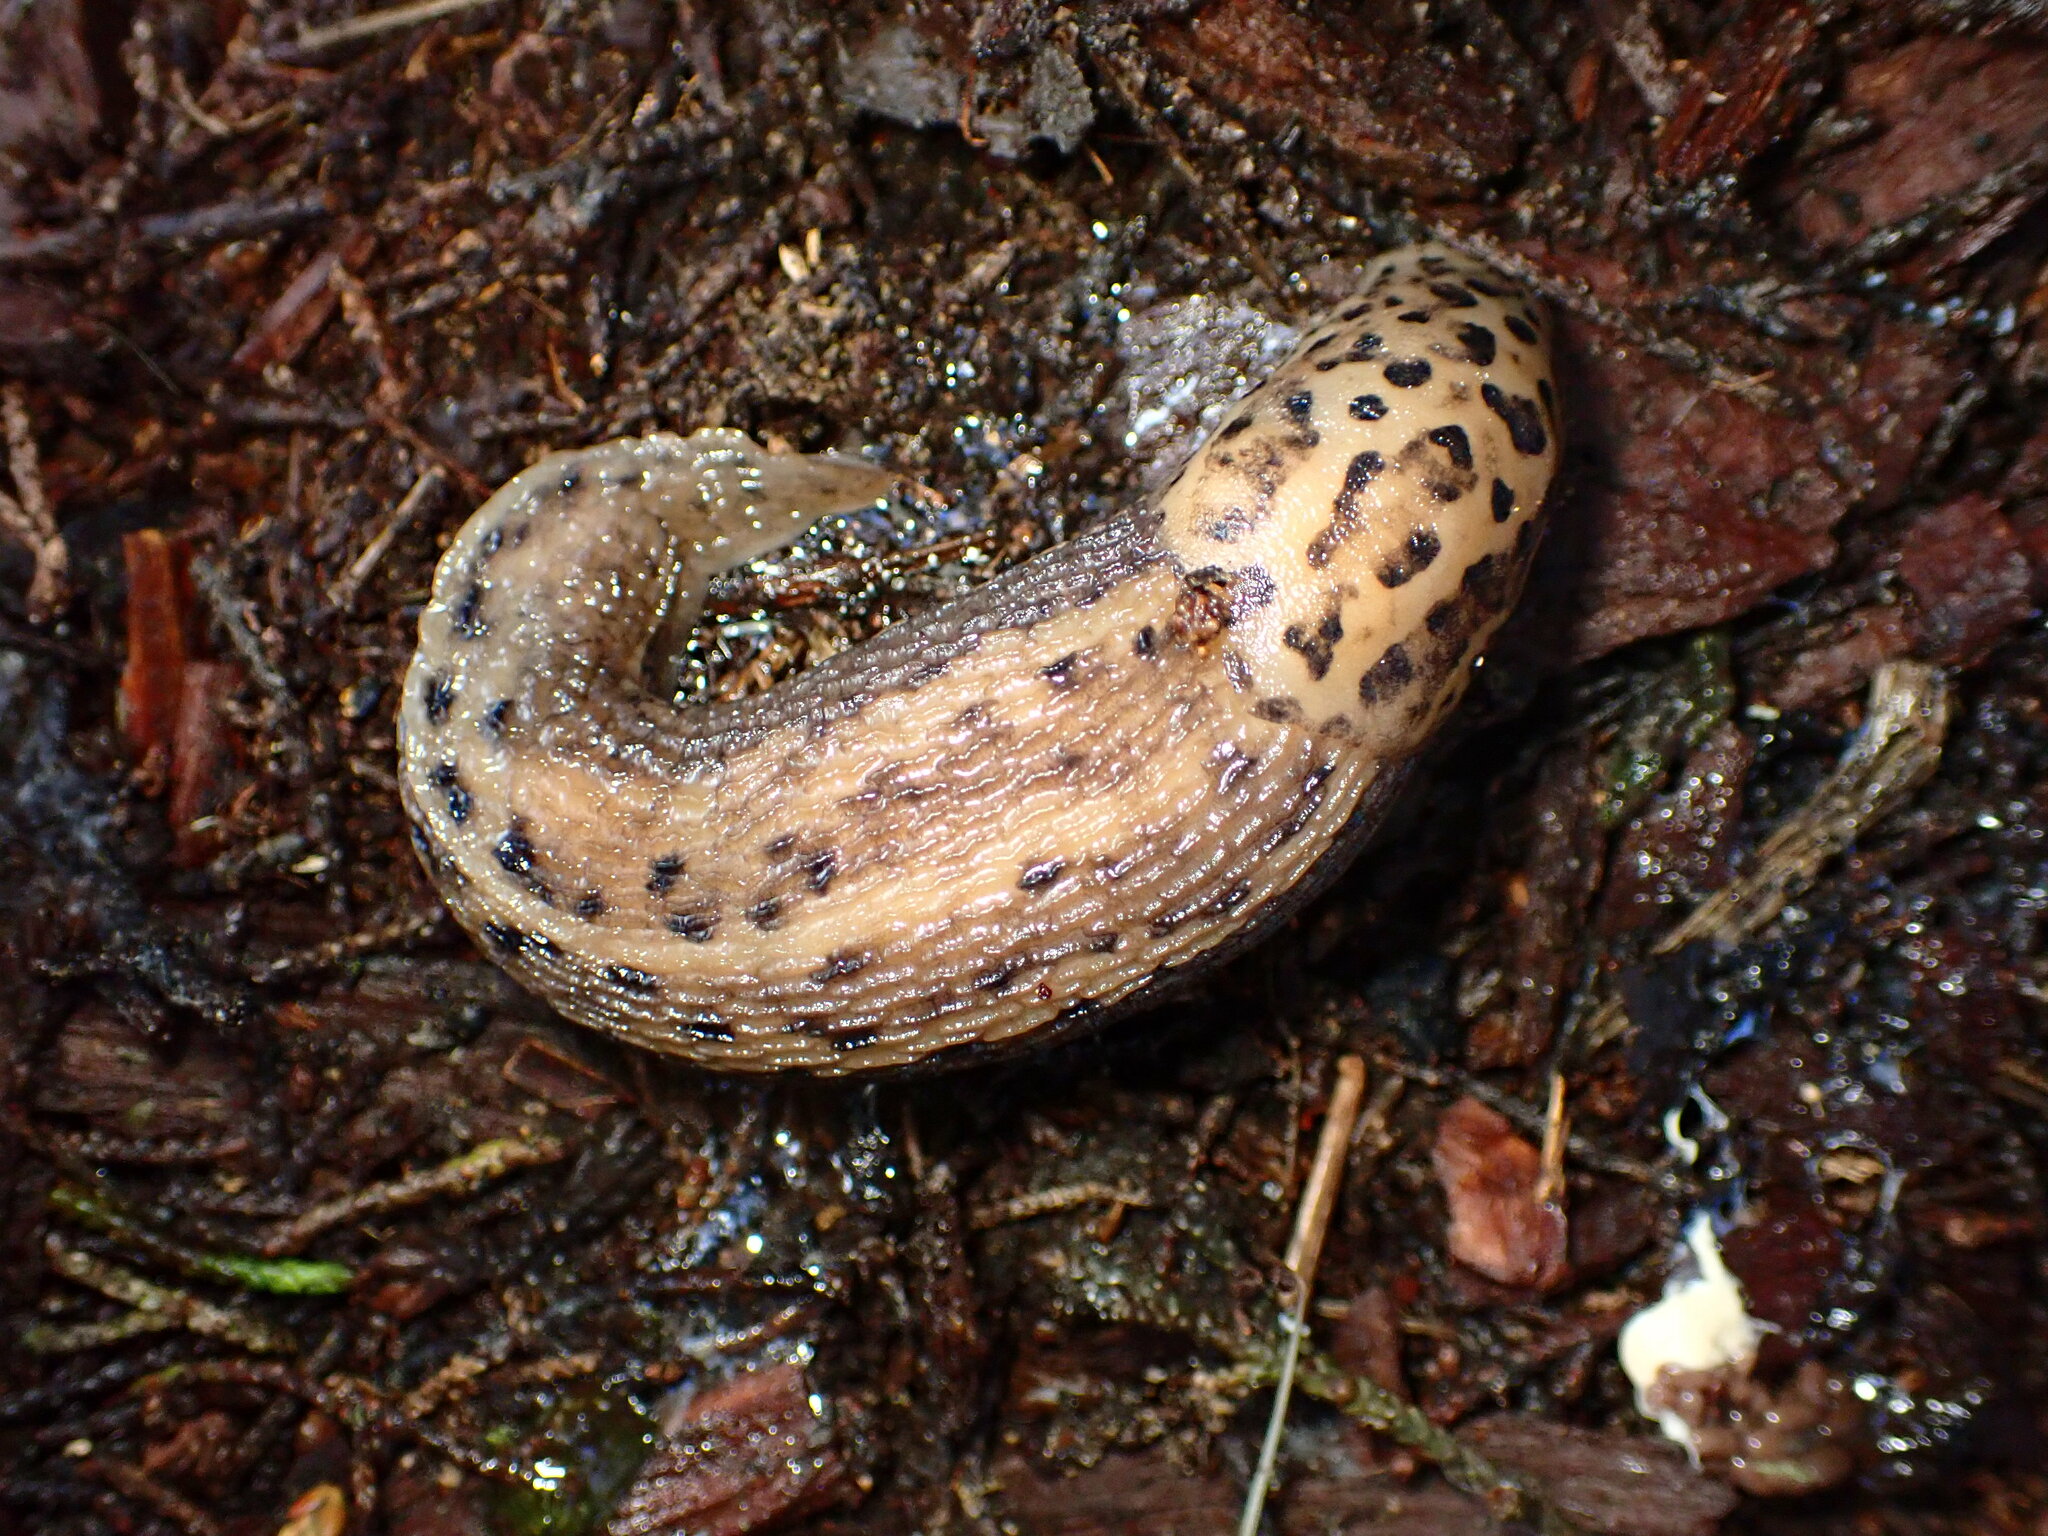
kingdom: Animalia
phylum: Mollusca
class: Gastropoda
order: Stylommatophora
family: Limacidae
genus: Limax
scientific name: Limax maximus
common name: Great grey slug
